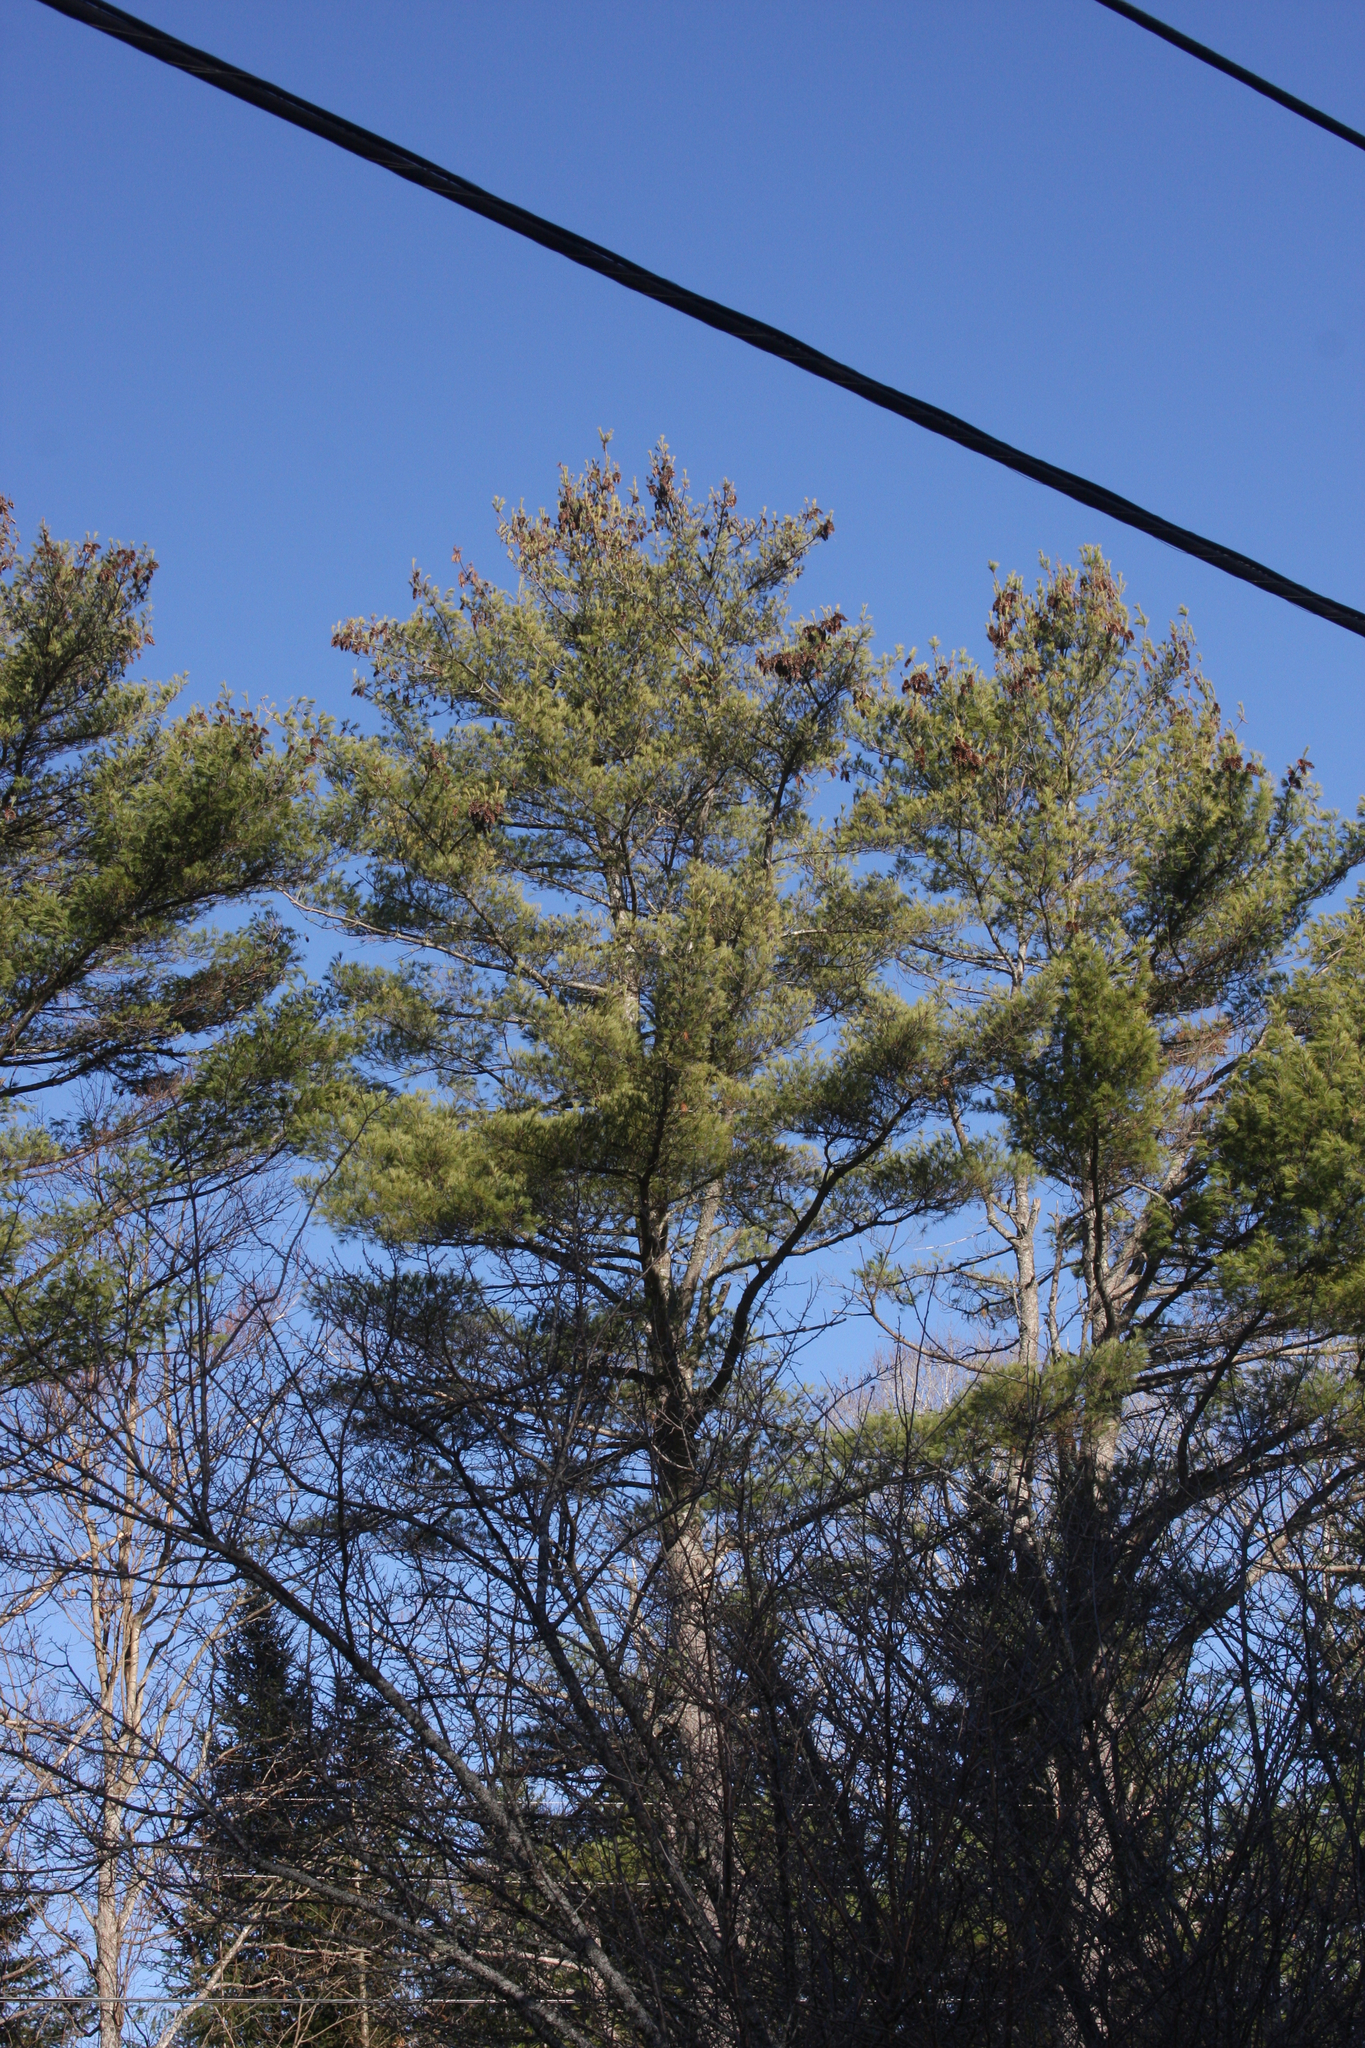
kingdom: Plantae
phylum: Tracheophyta
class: Pinopsida
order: Pinales
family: Pinaceae
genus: Pinus
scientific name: Pinus strobus
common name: Weymouth pine
